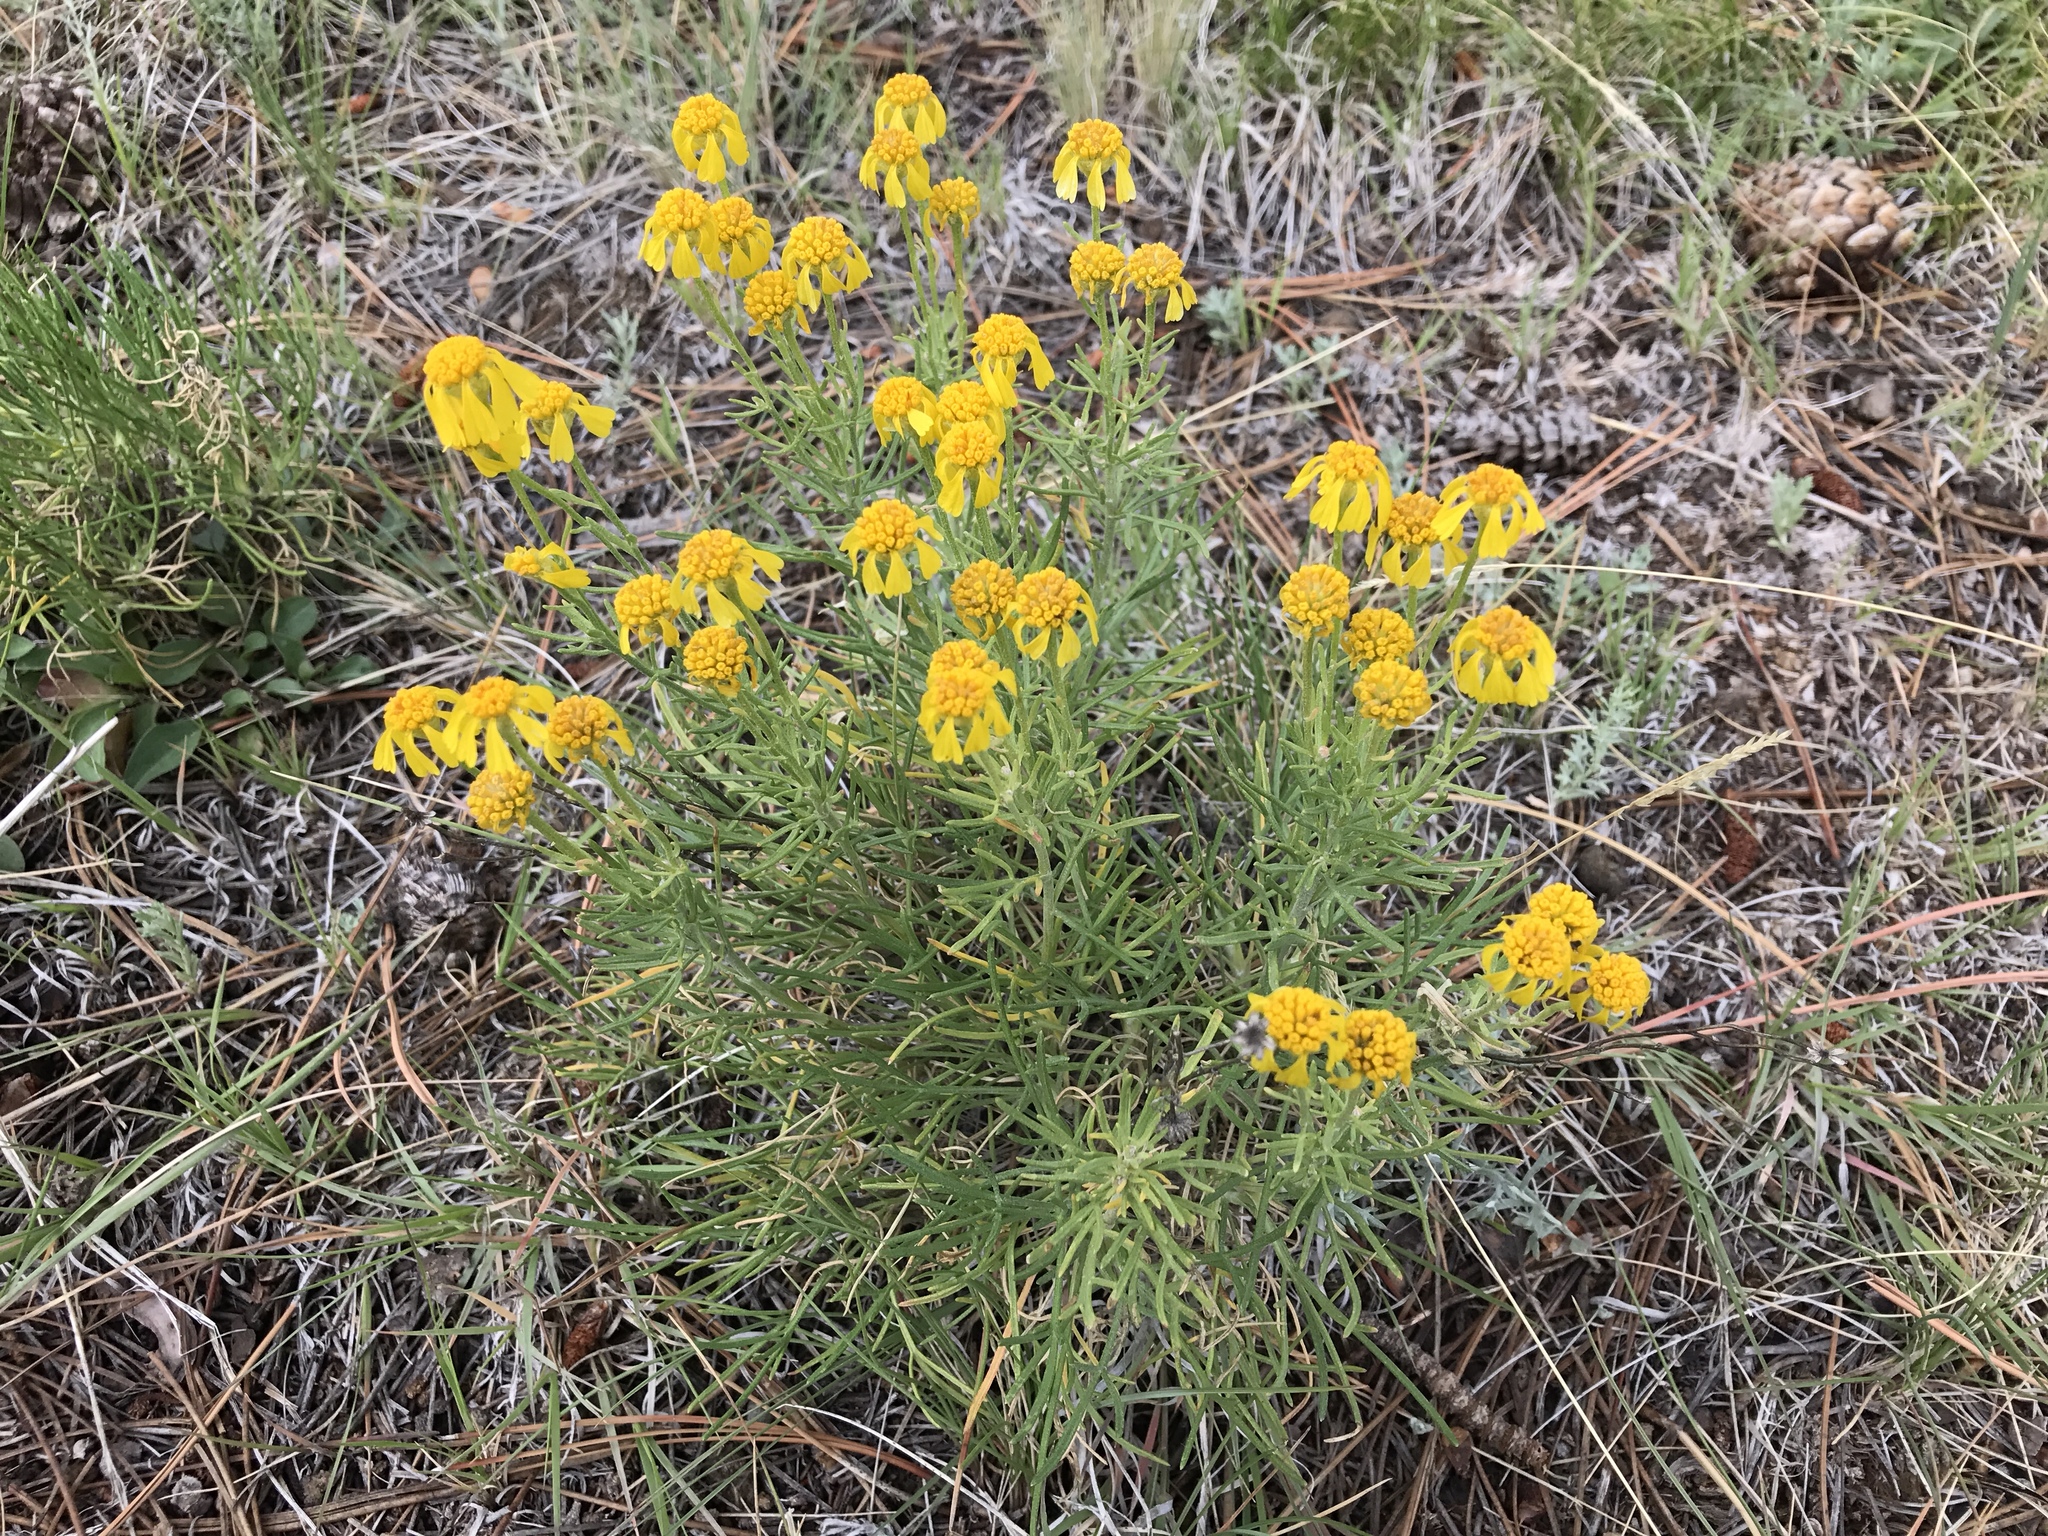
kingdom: Plantae
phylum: Tracheophyta
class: Magnoliopsida
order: Asterales
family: Asteraceae
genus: Hymenoxys
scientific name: Hymenoxys bigelovii
